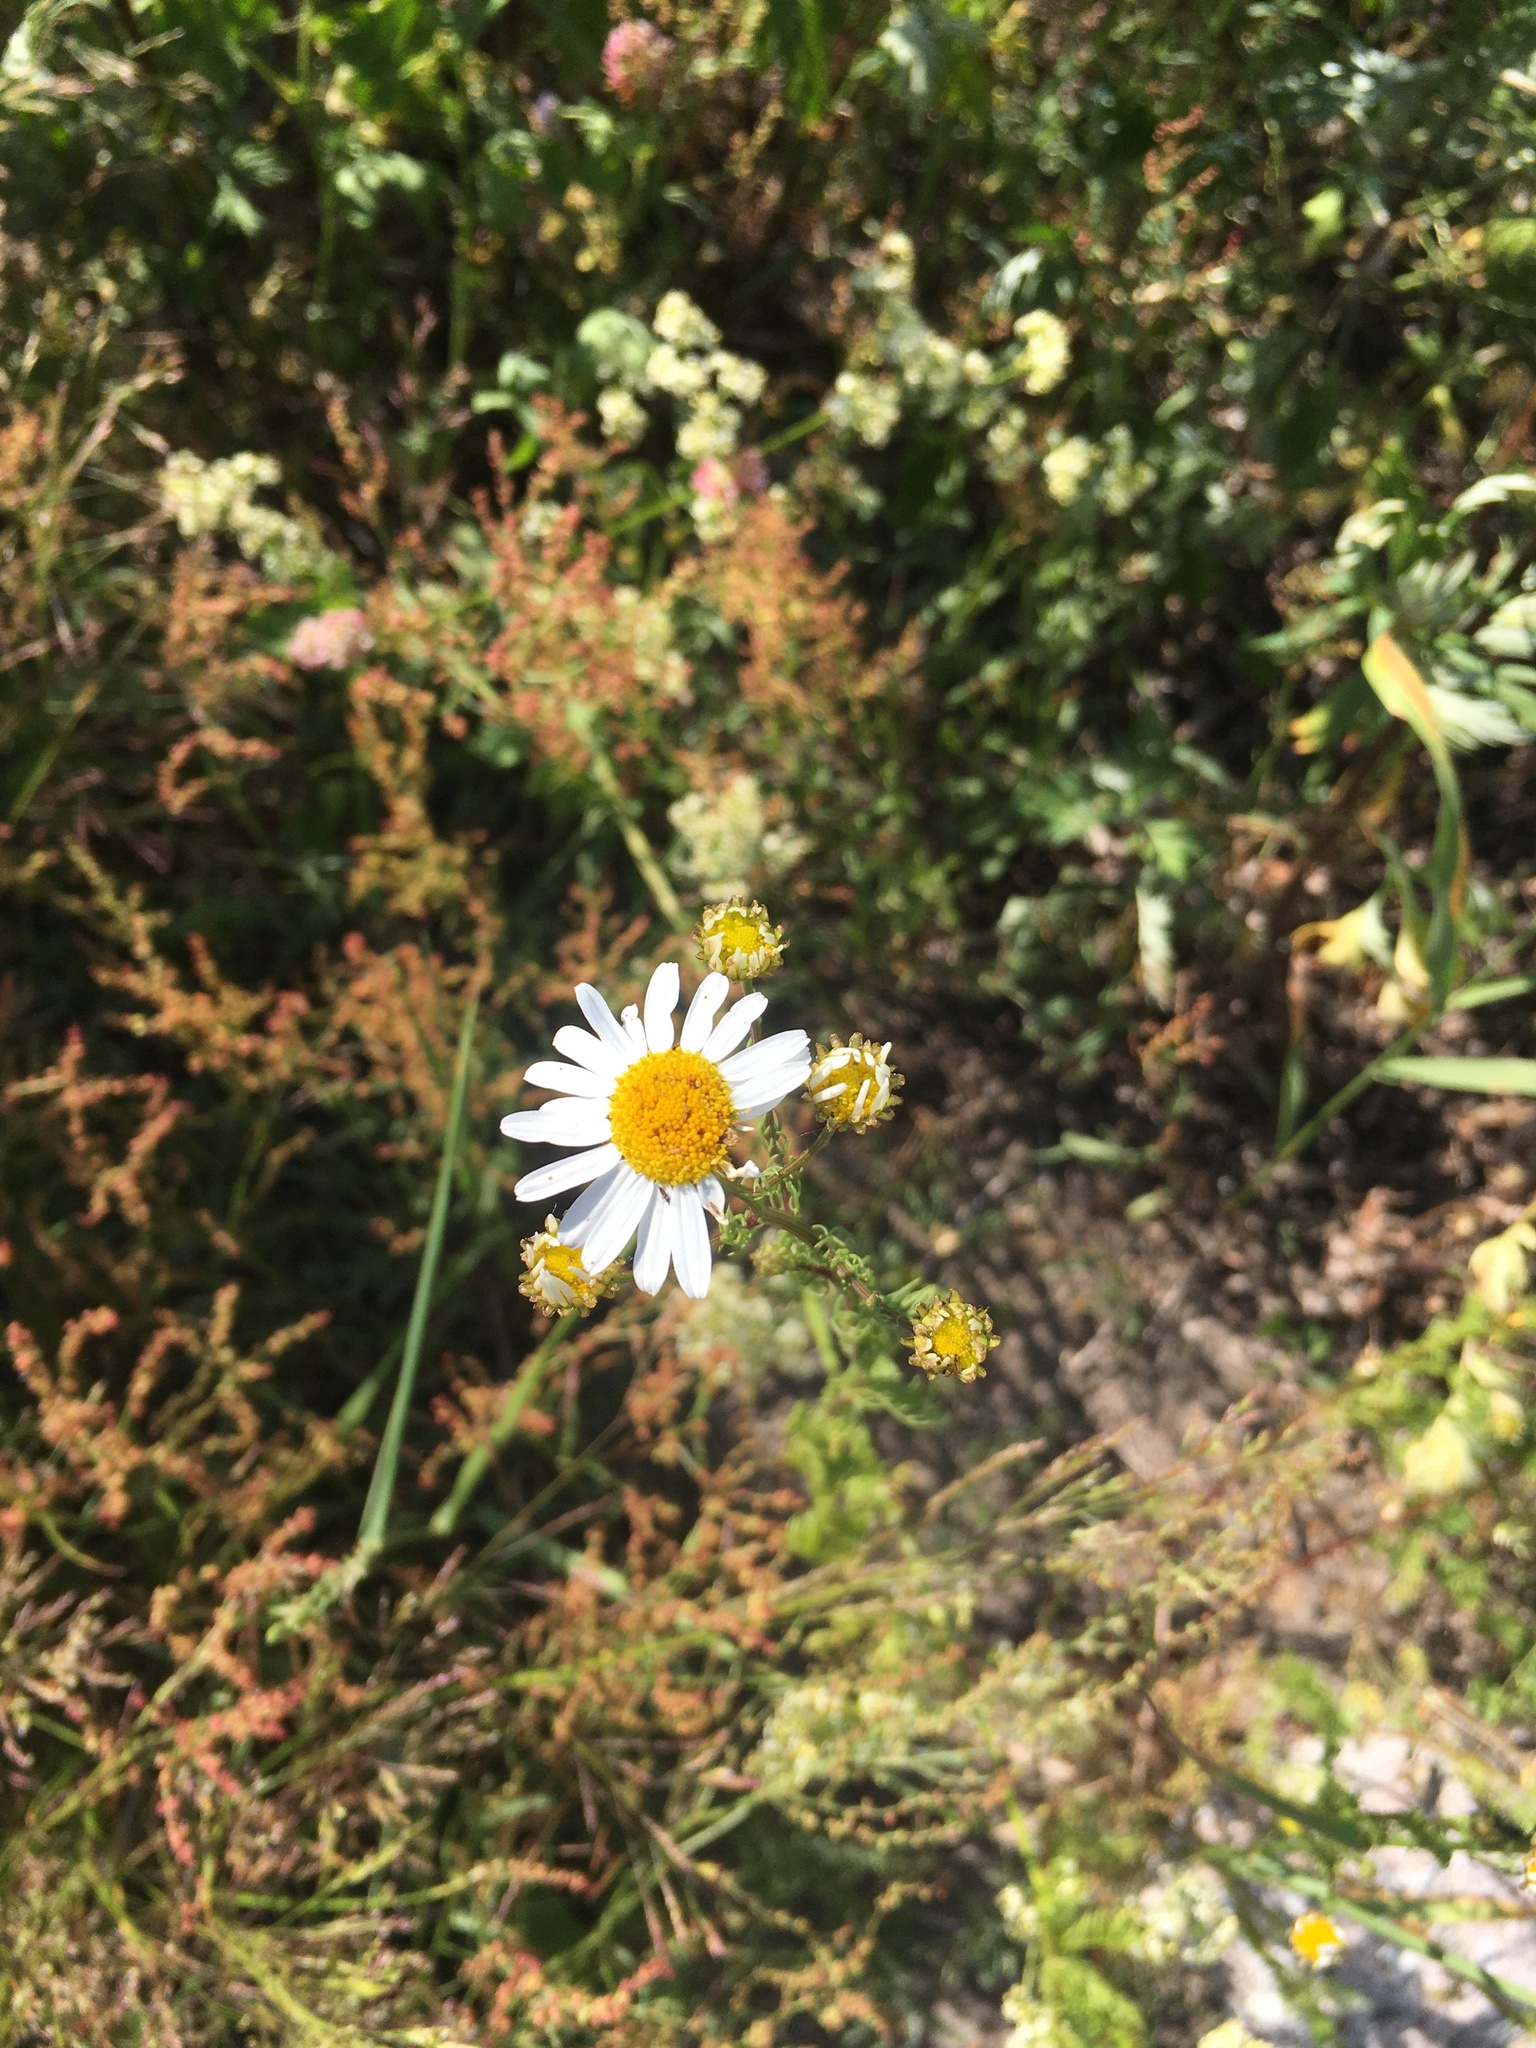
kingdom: Plantae
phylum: Tracheophyta
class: Magnoliopsida
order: Asterales
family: Asteraceae
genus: Tripleurospermum
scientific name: Tripleurospermum inodorum
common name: Scentless mayweed
